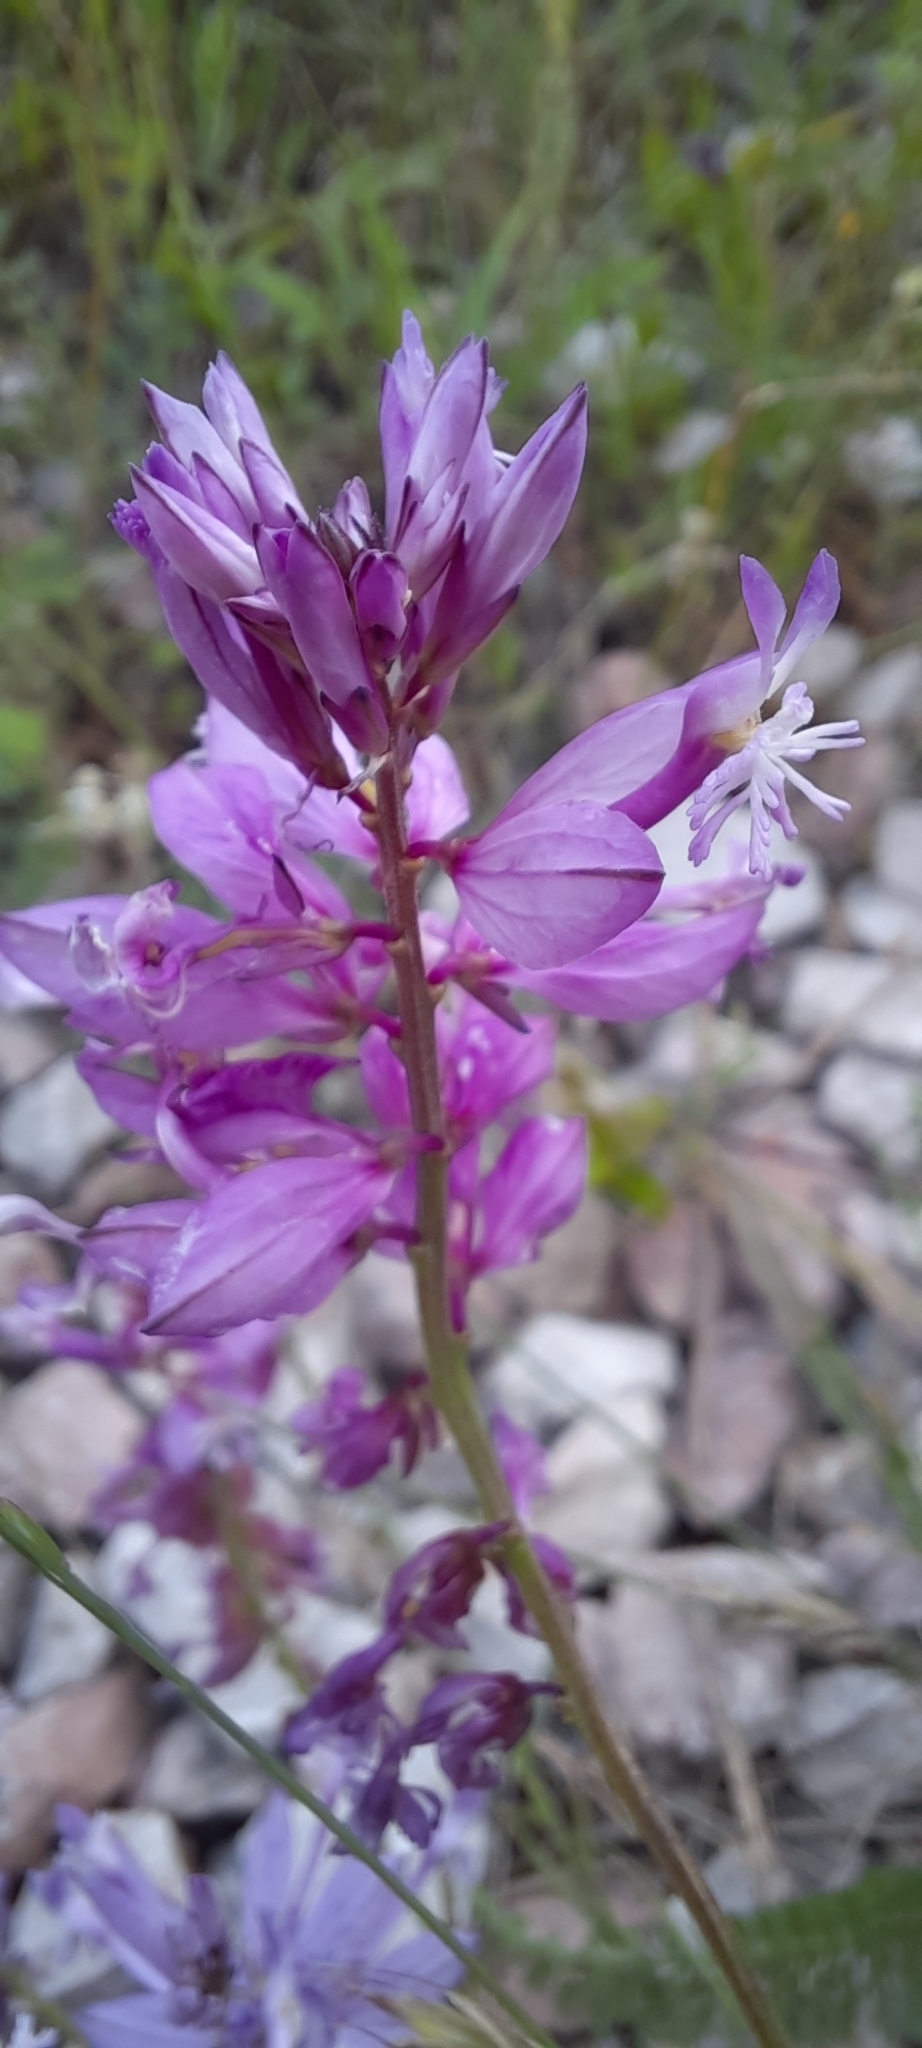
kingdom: Plantae
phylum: Tracheophyta
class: Magnoliopsida
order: Fabales
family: Polygalaceae
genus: Polygala
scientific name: Polygala major
